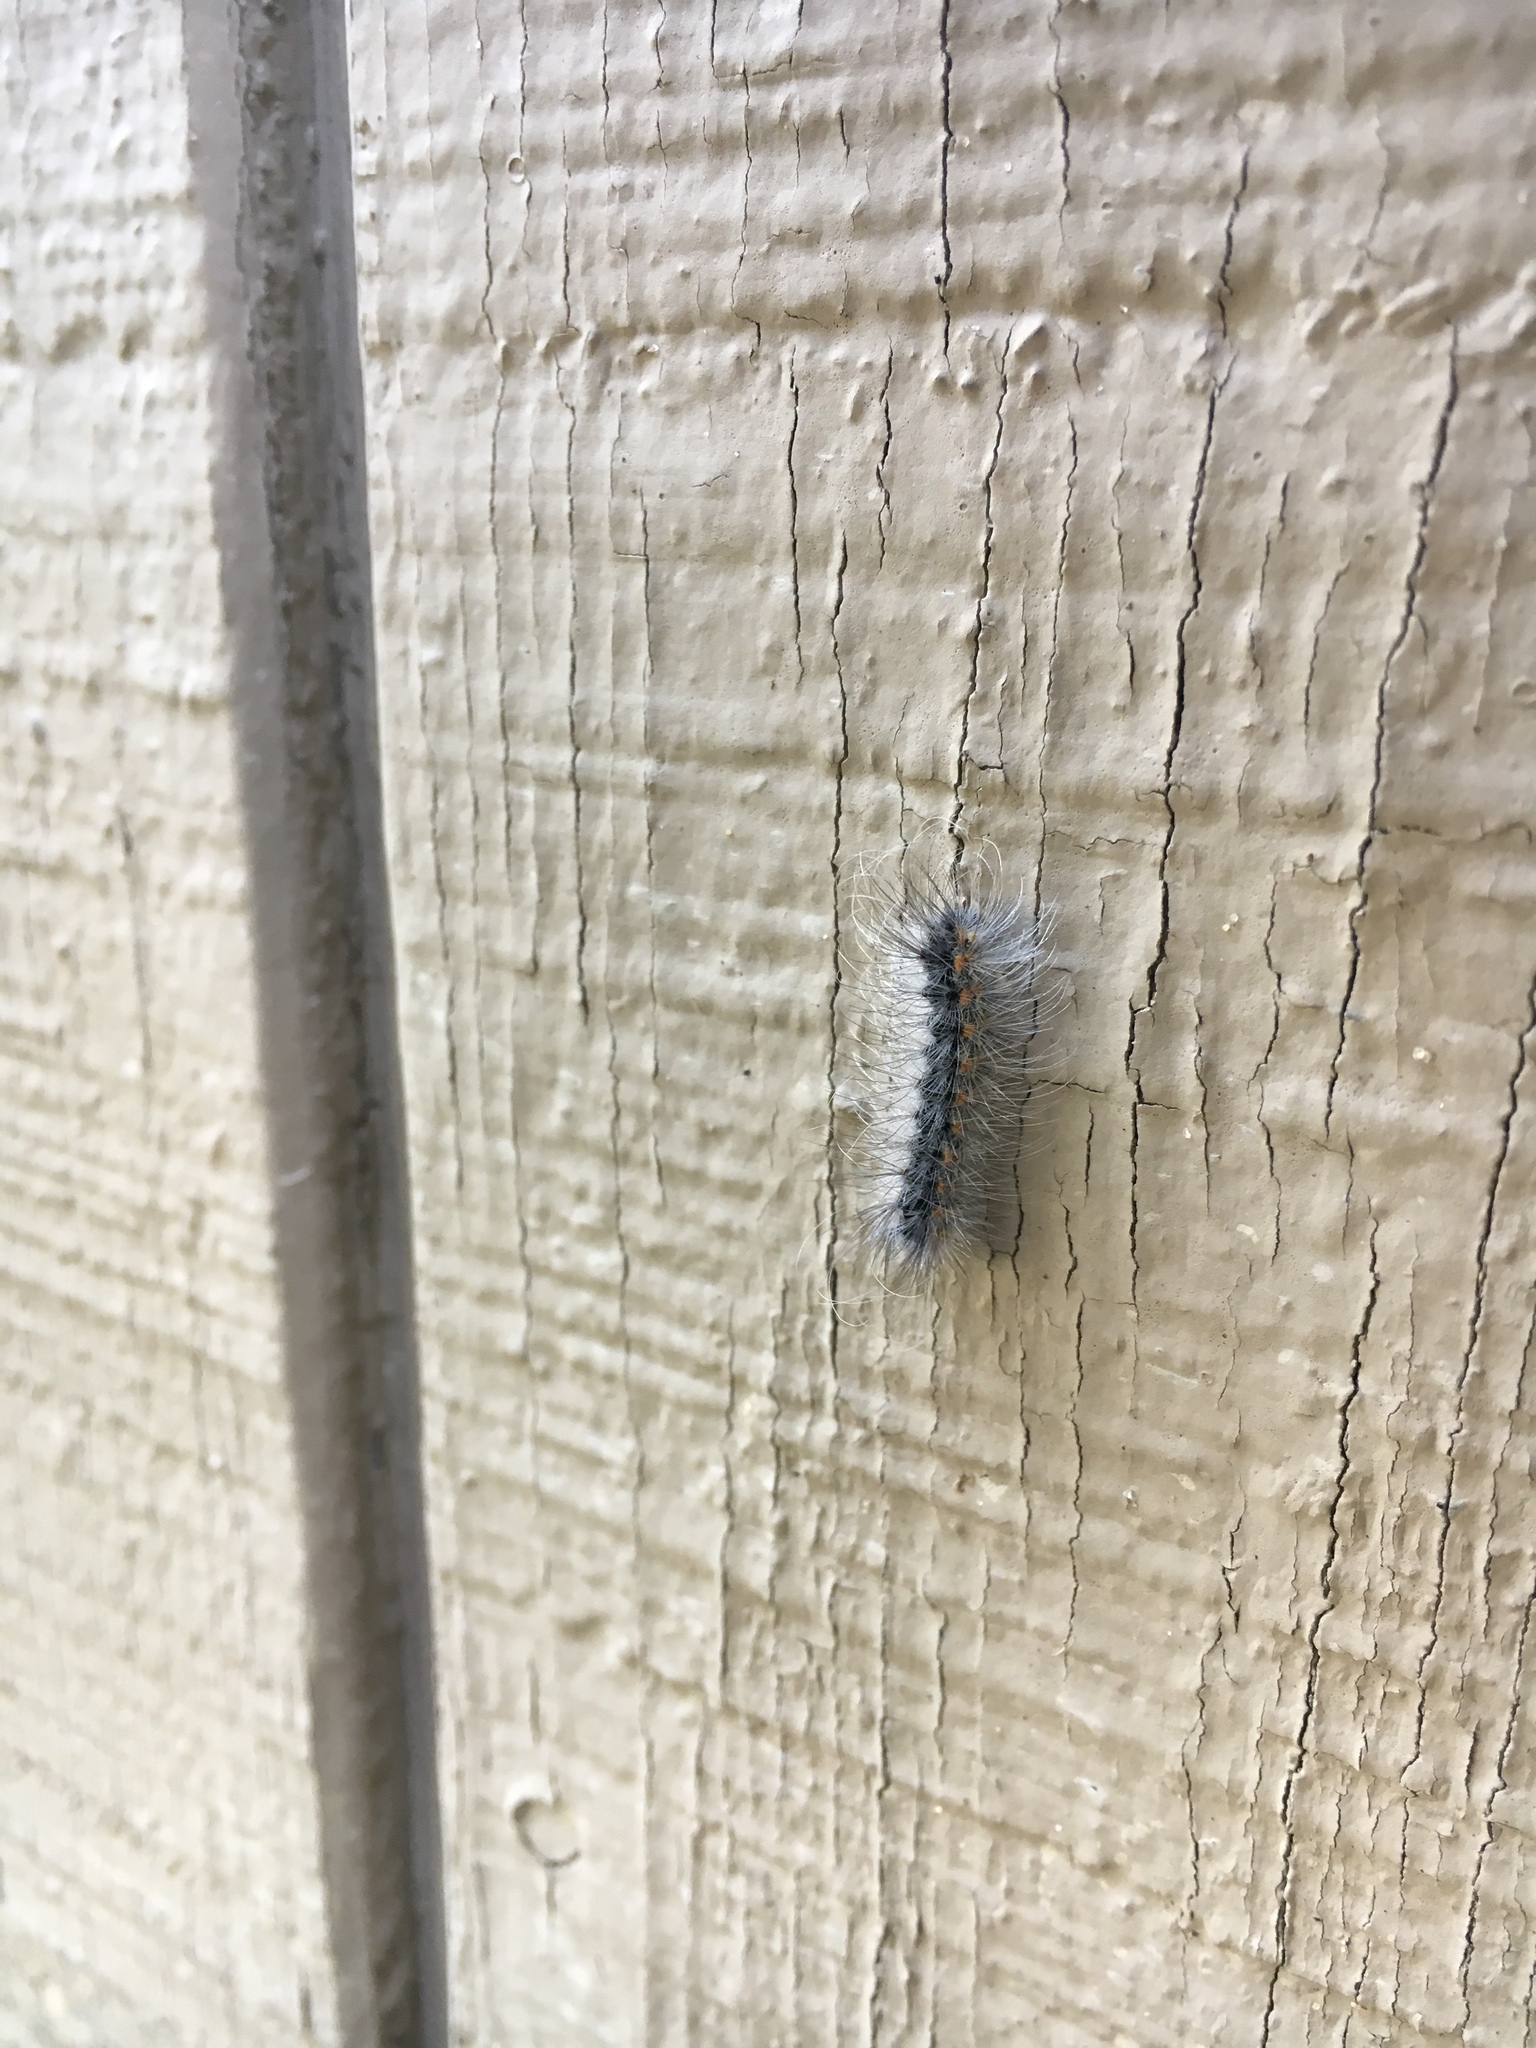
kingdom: Animalia
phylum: Arthropoda
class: Insecta
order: Lepidoptera
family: Erebidae
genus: Hyphantria
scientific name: Hyphantria cunea
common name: American white moth
